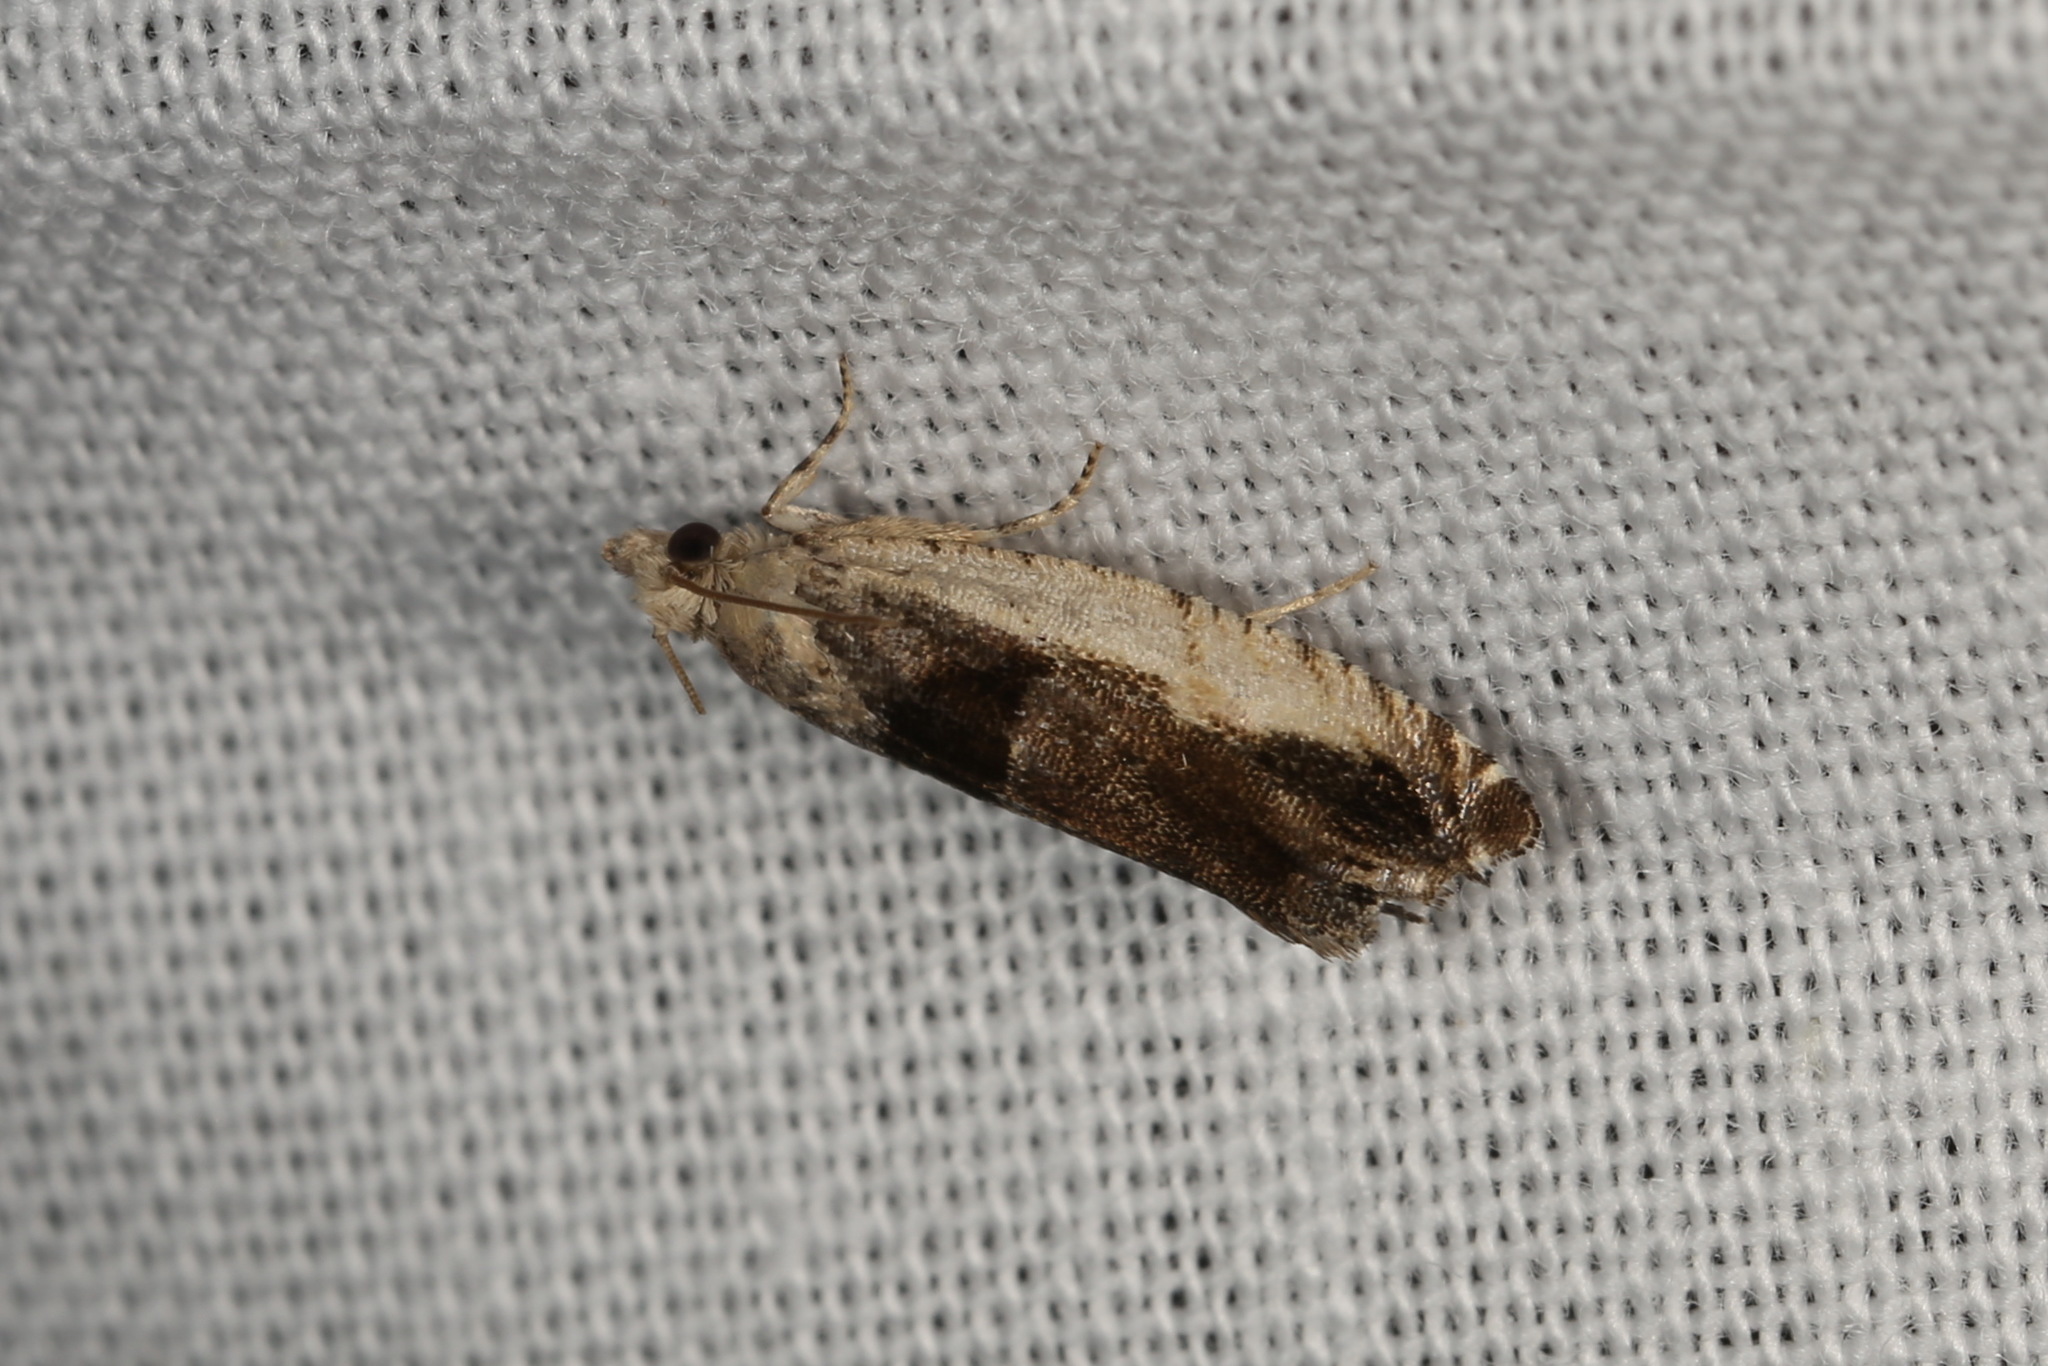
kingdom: Animalia
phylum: Arthropoda
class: Insecta
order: Lepidoptera
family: Tortricidae
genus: Epinotia
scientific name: Epinotia ramella
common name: Small birch bell
